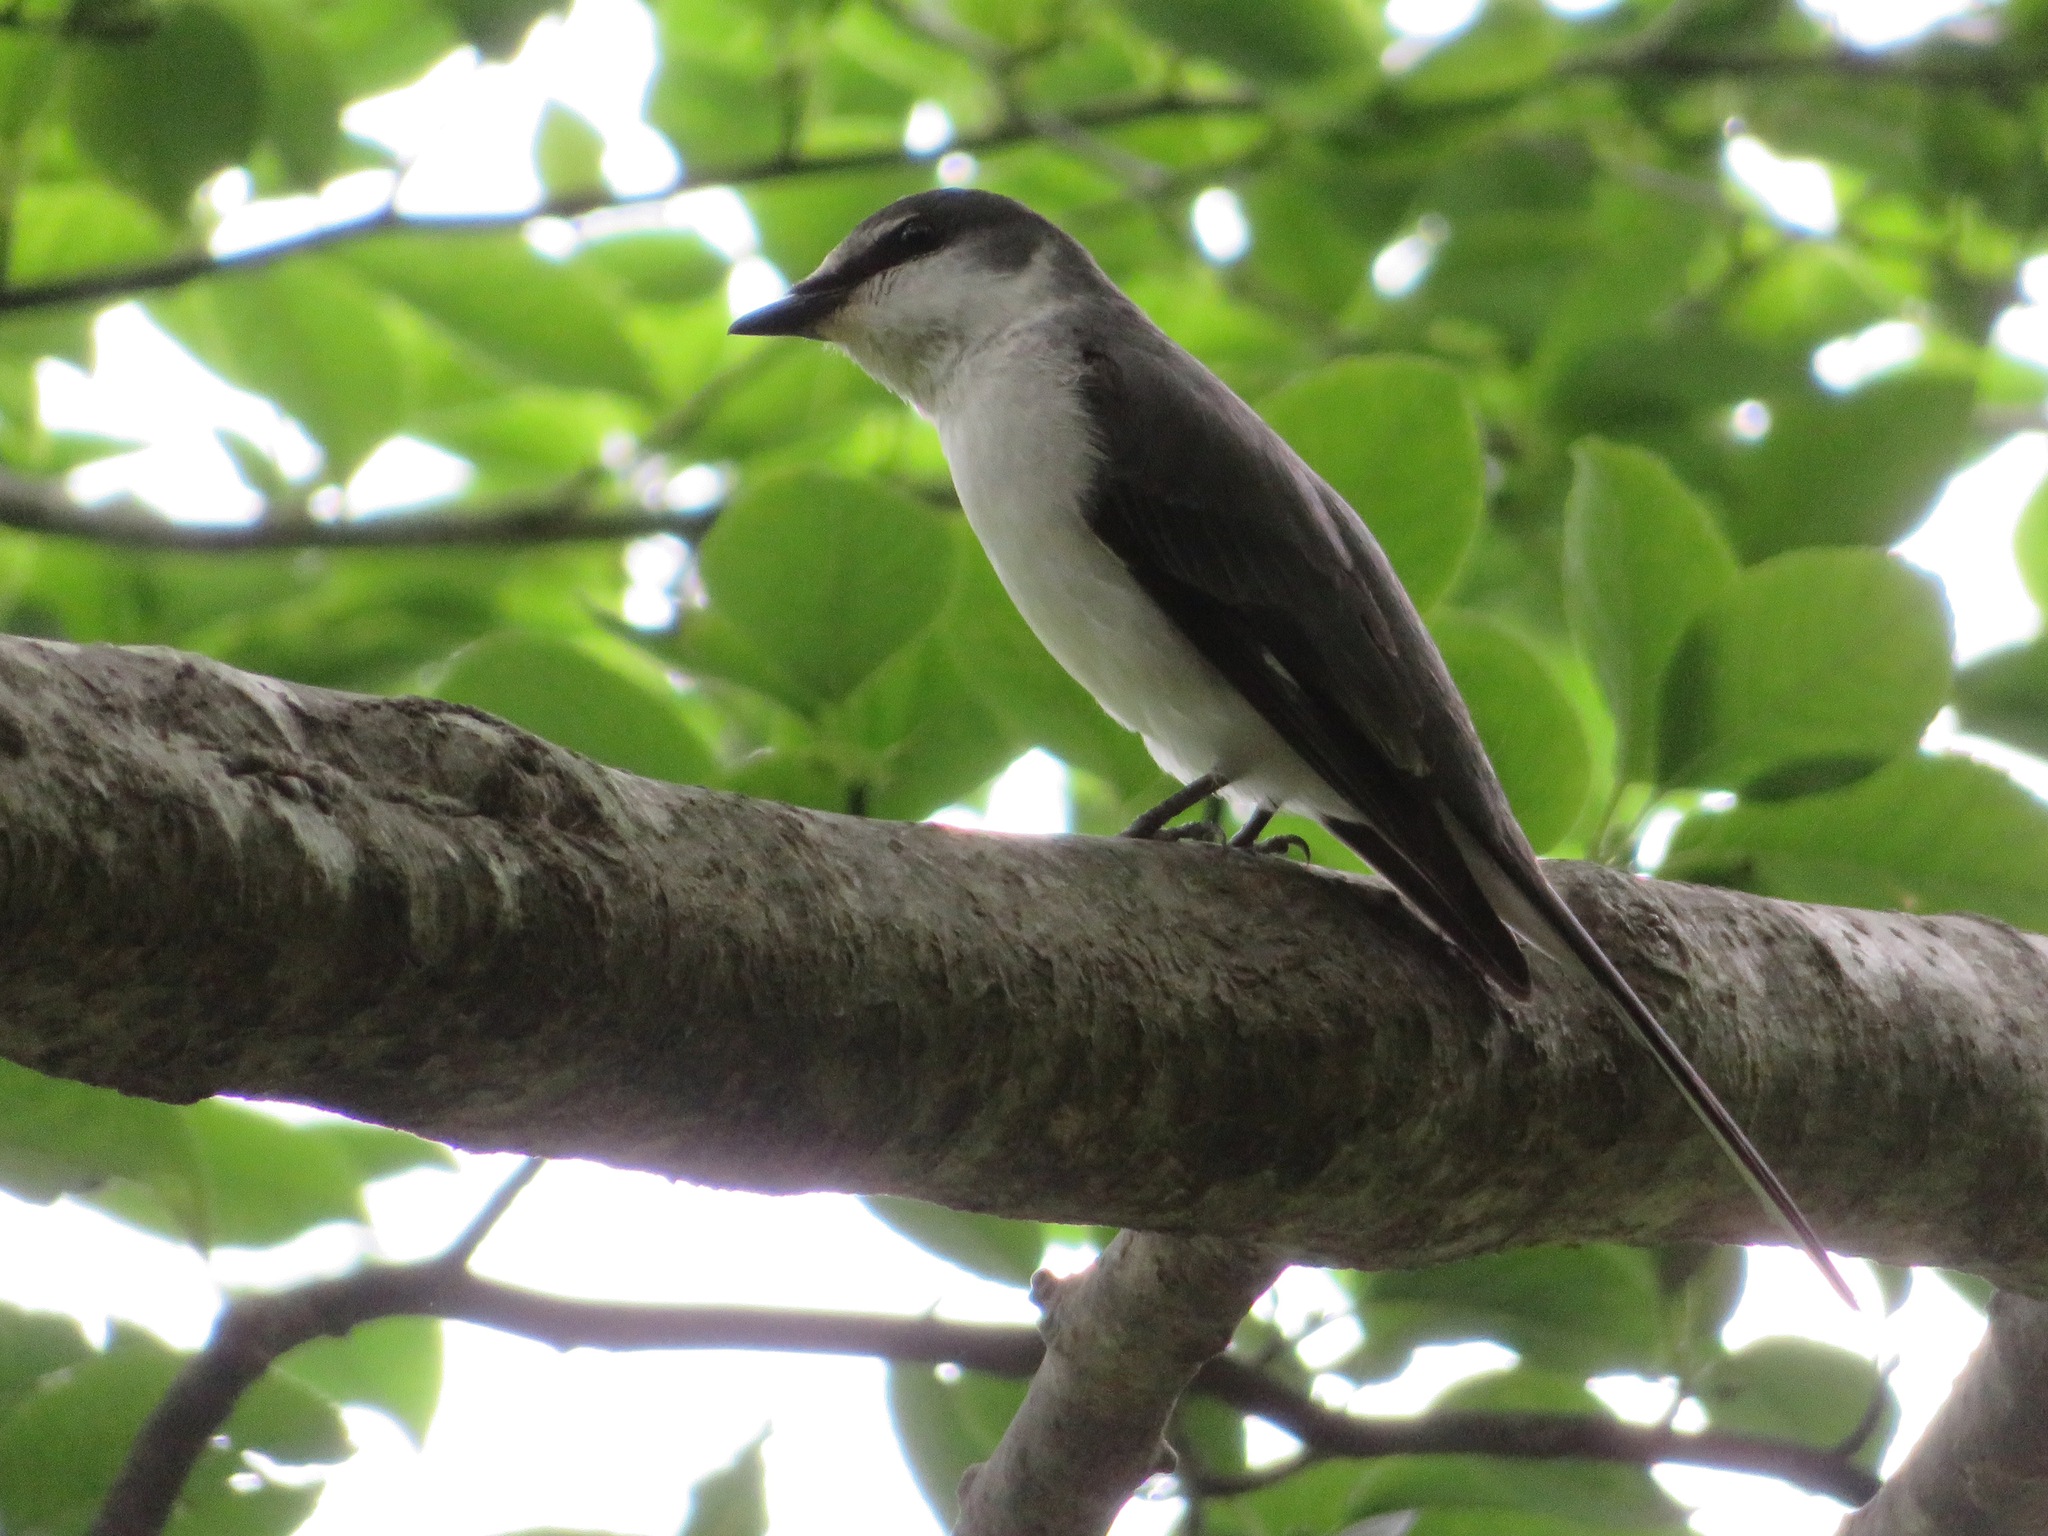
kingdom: Animalia
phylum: Chordata
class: Aves
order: Passeriformes
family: Campephagidae
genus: Pericrocotus
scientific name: Pericrocotus divaricatus
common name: Ashy minivet
